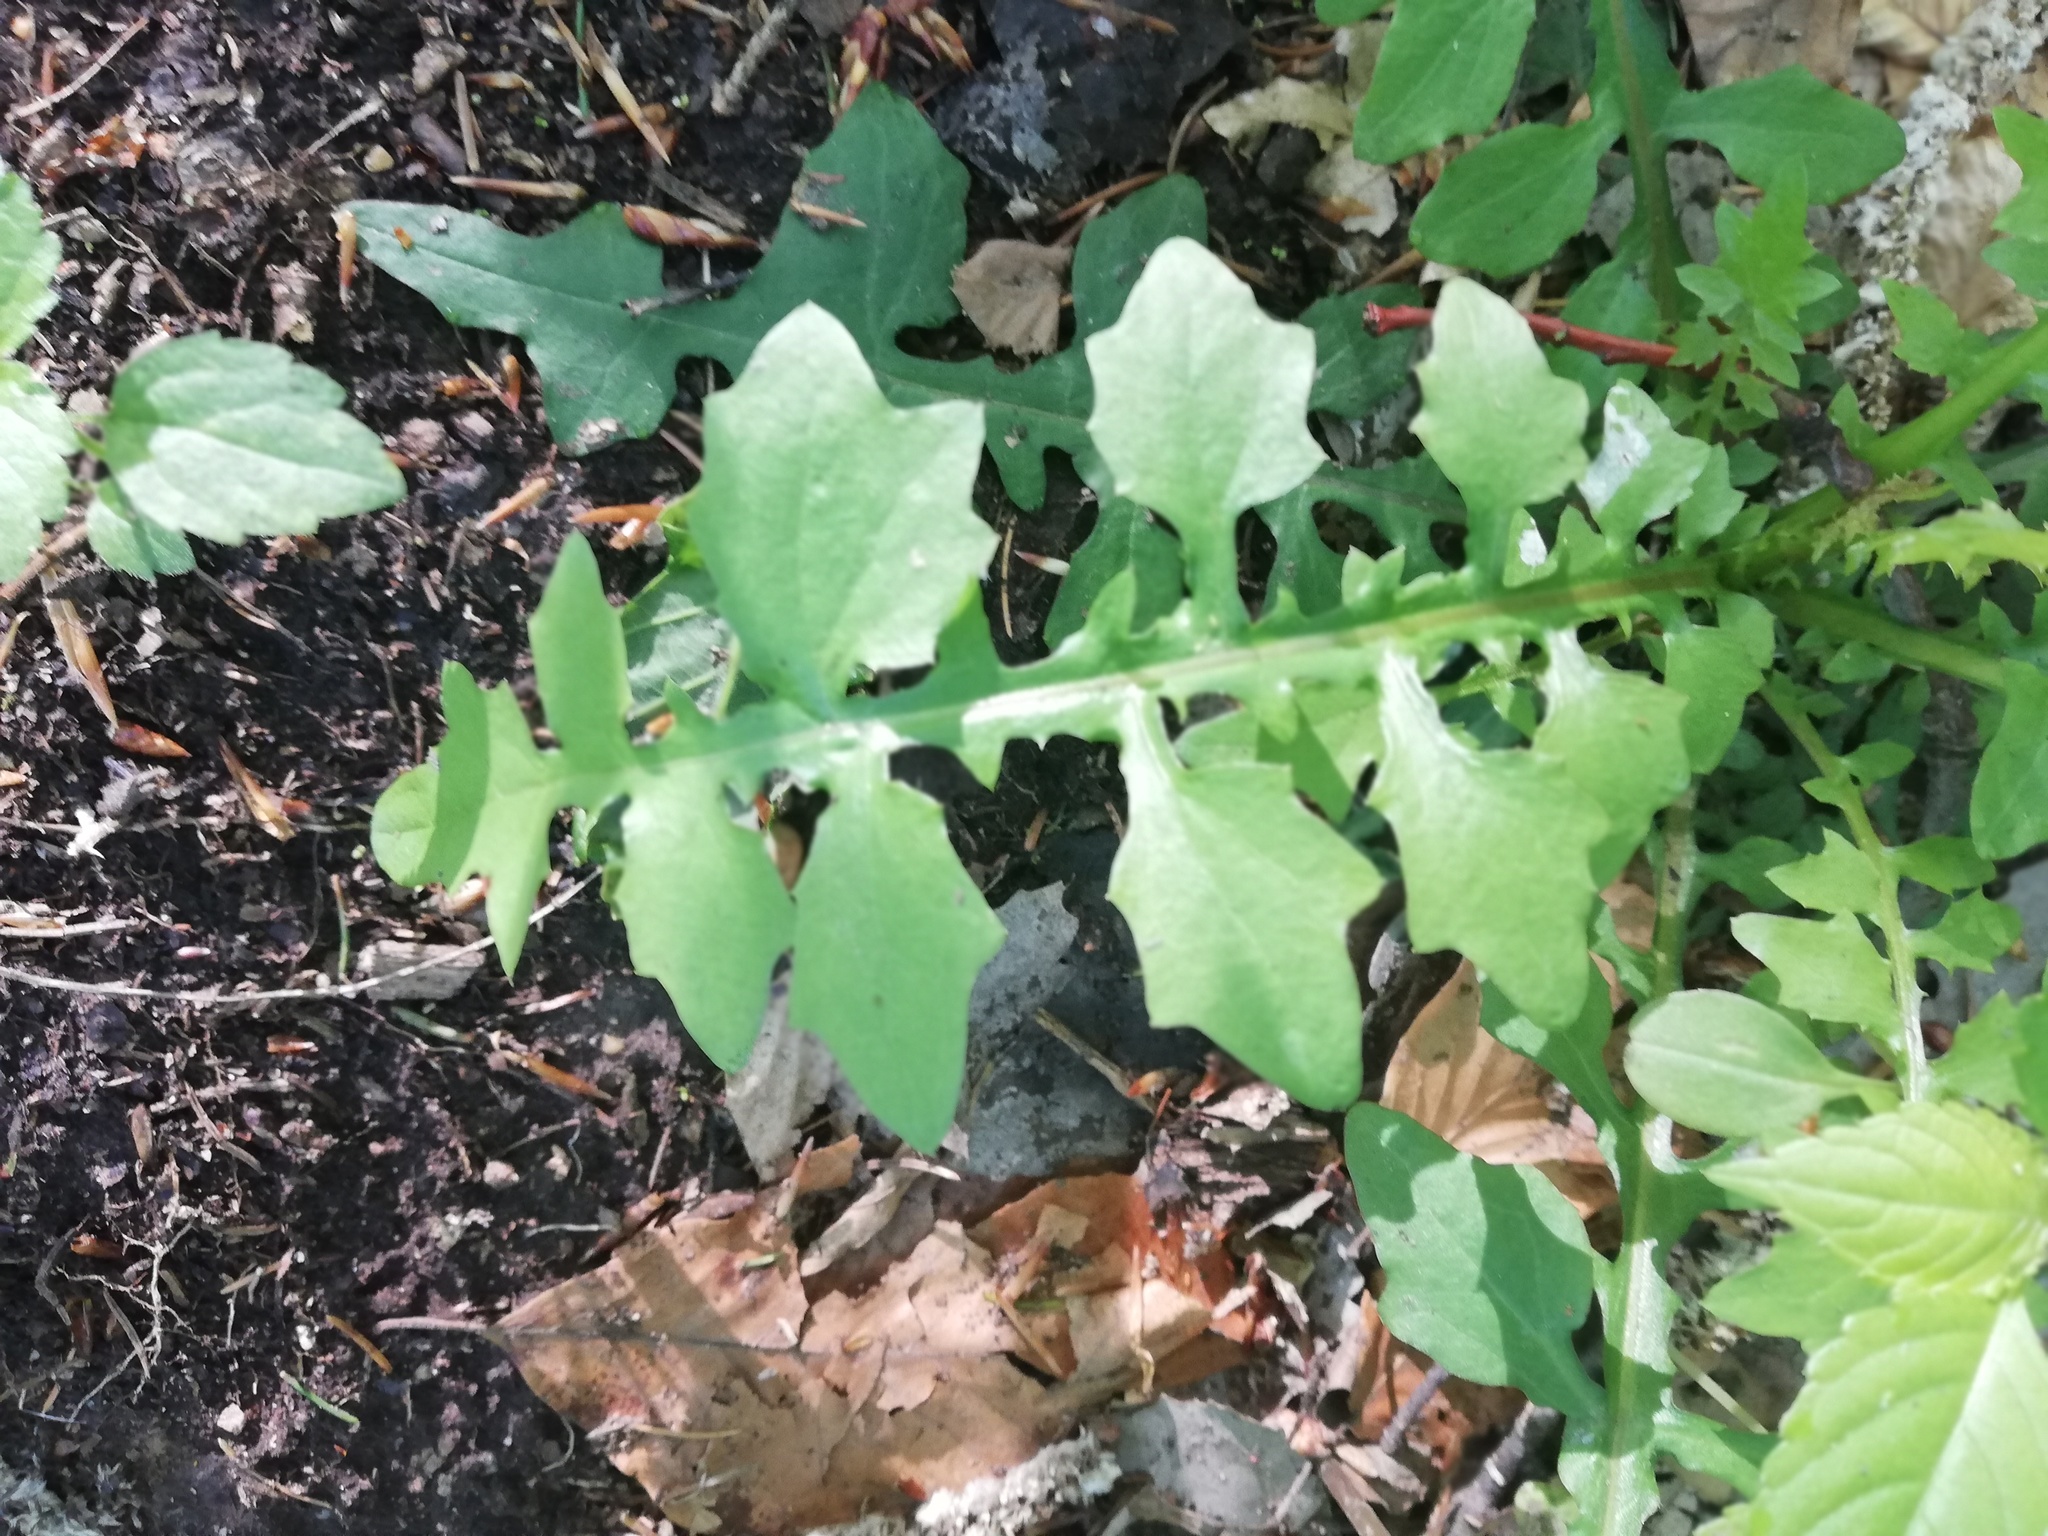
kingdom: Plantae
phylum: Tracheophyta
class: Magnoliopsida
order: Asterales
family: Asteraceae
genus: Mycelis
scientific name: Mycelis muralis
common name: Wall lettuce
